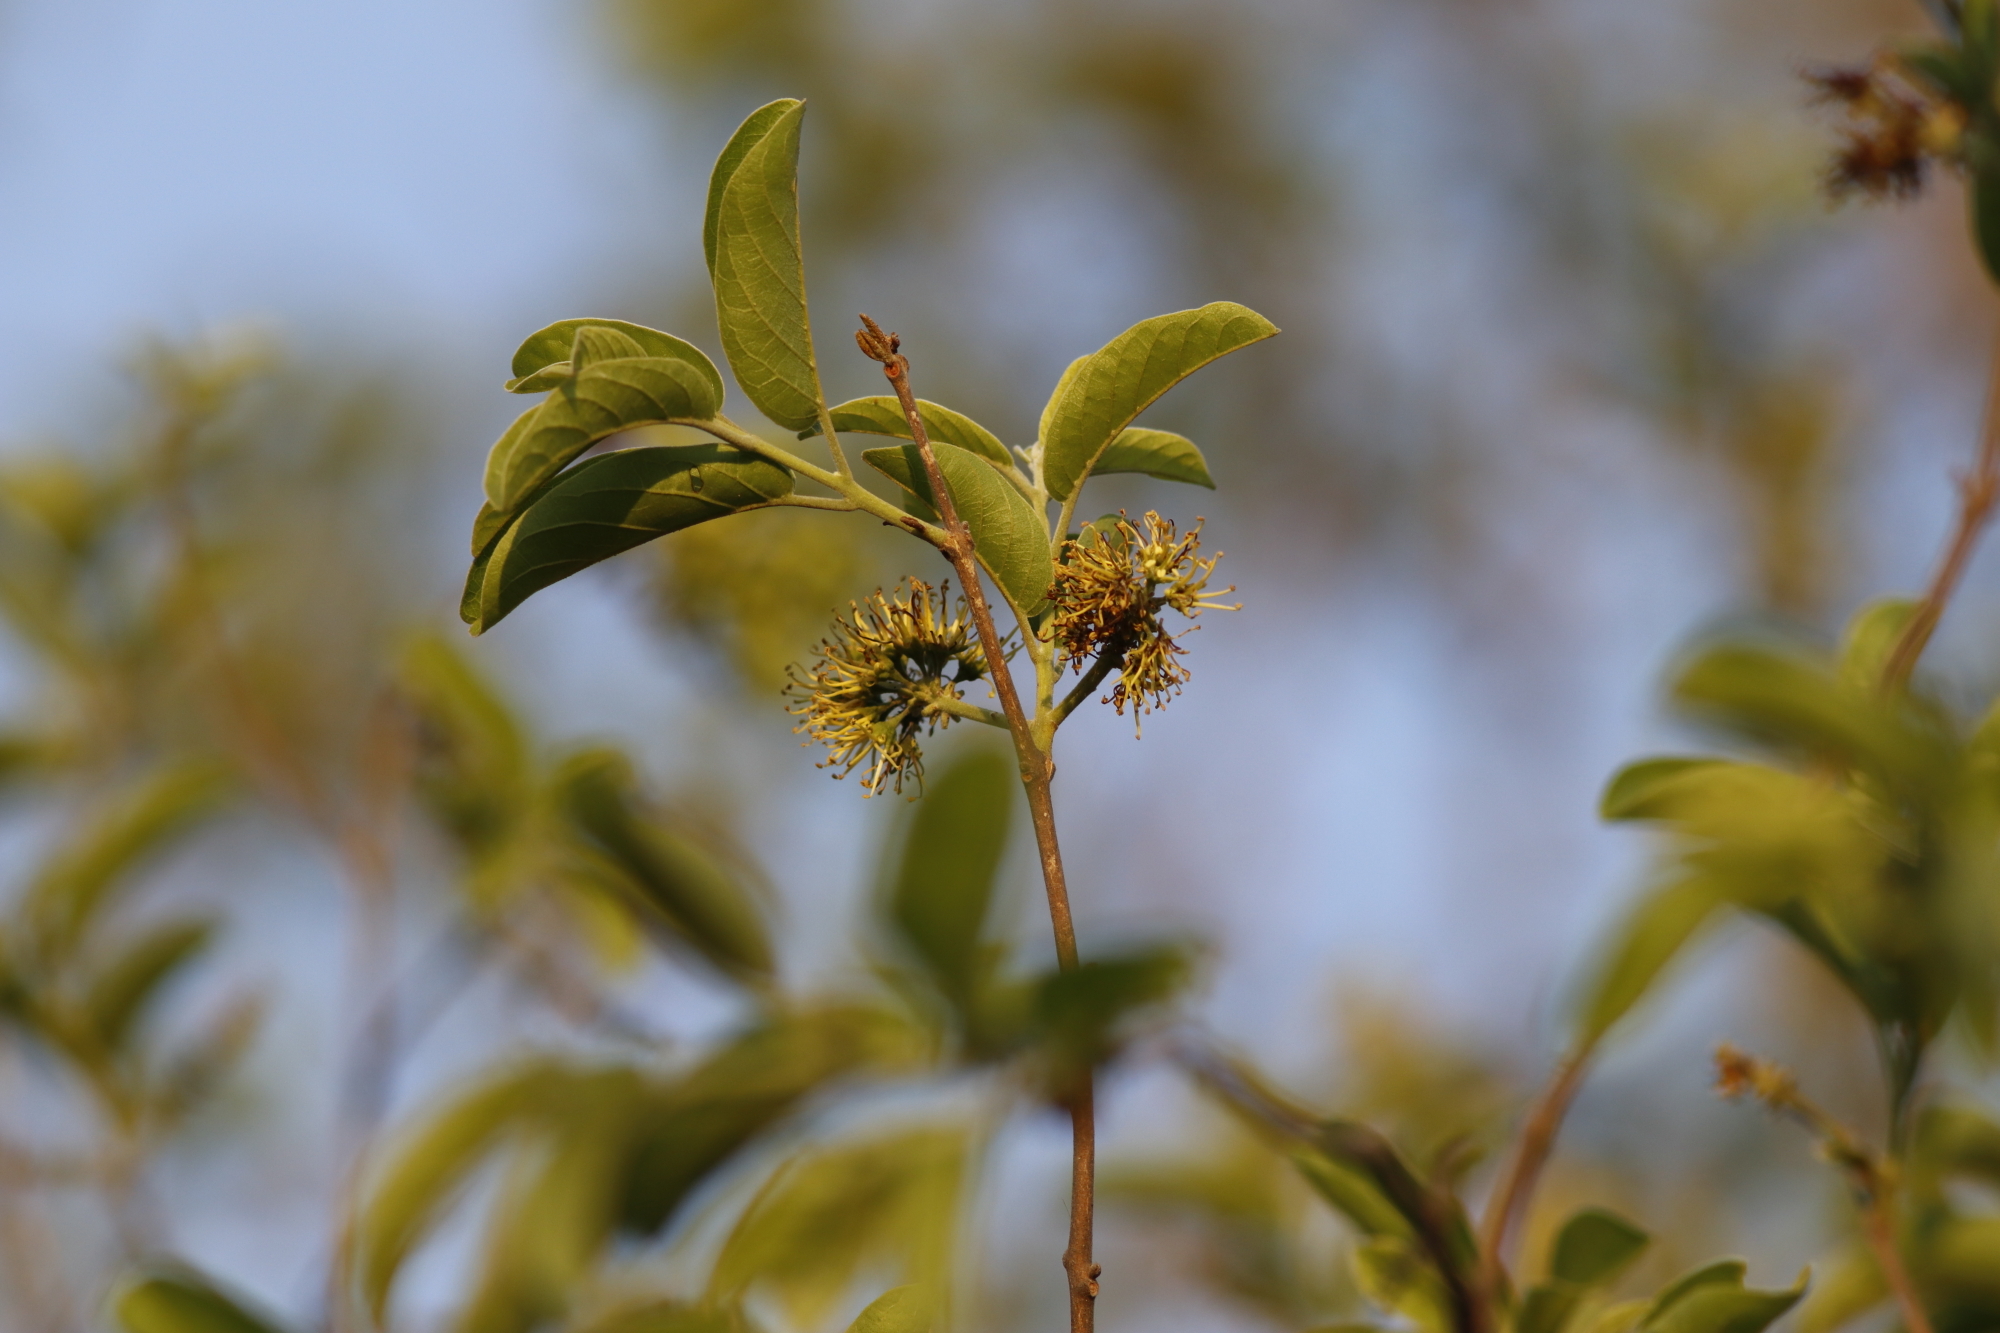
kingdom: Plantae
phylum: Tracheophyta
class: Magnoliopsida
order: Myrtales
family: Combretaceae
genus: Combretum
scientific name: Combretum zeyheri
